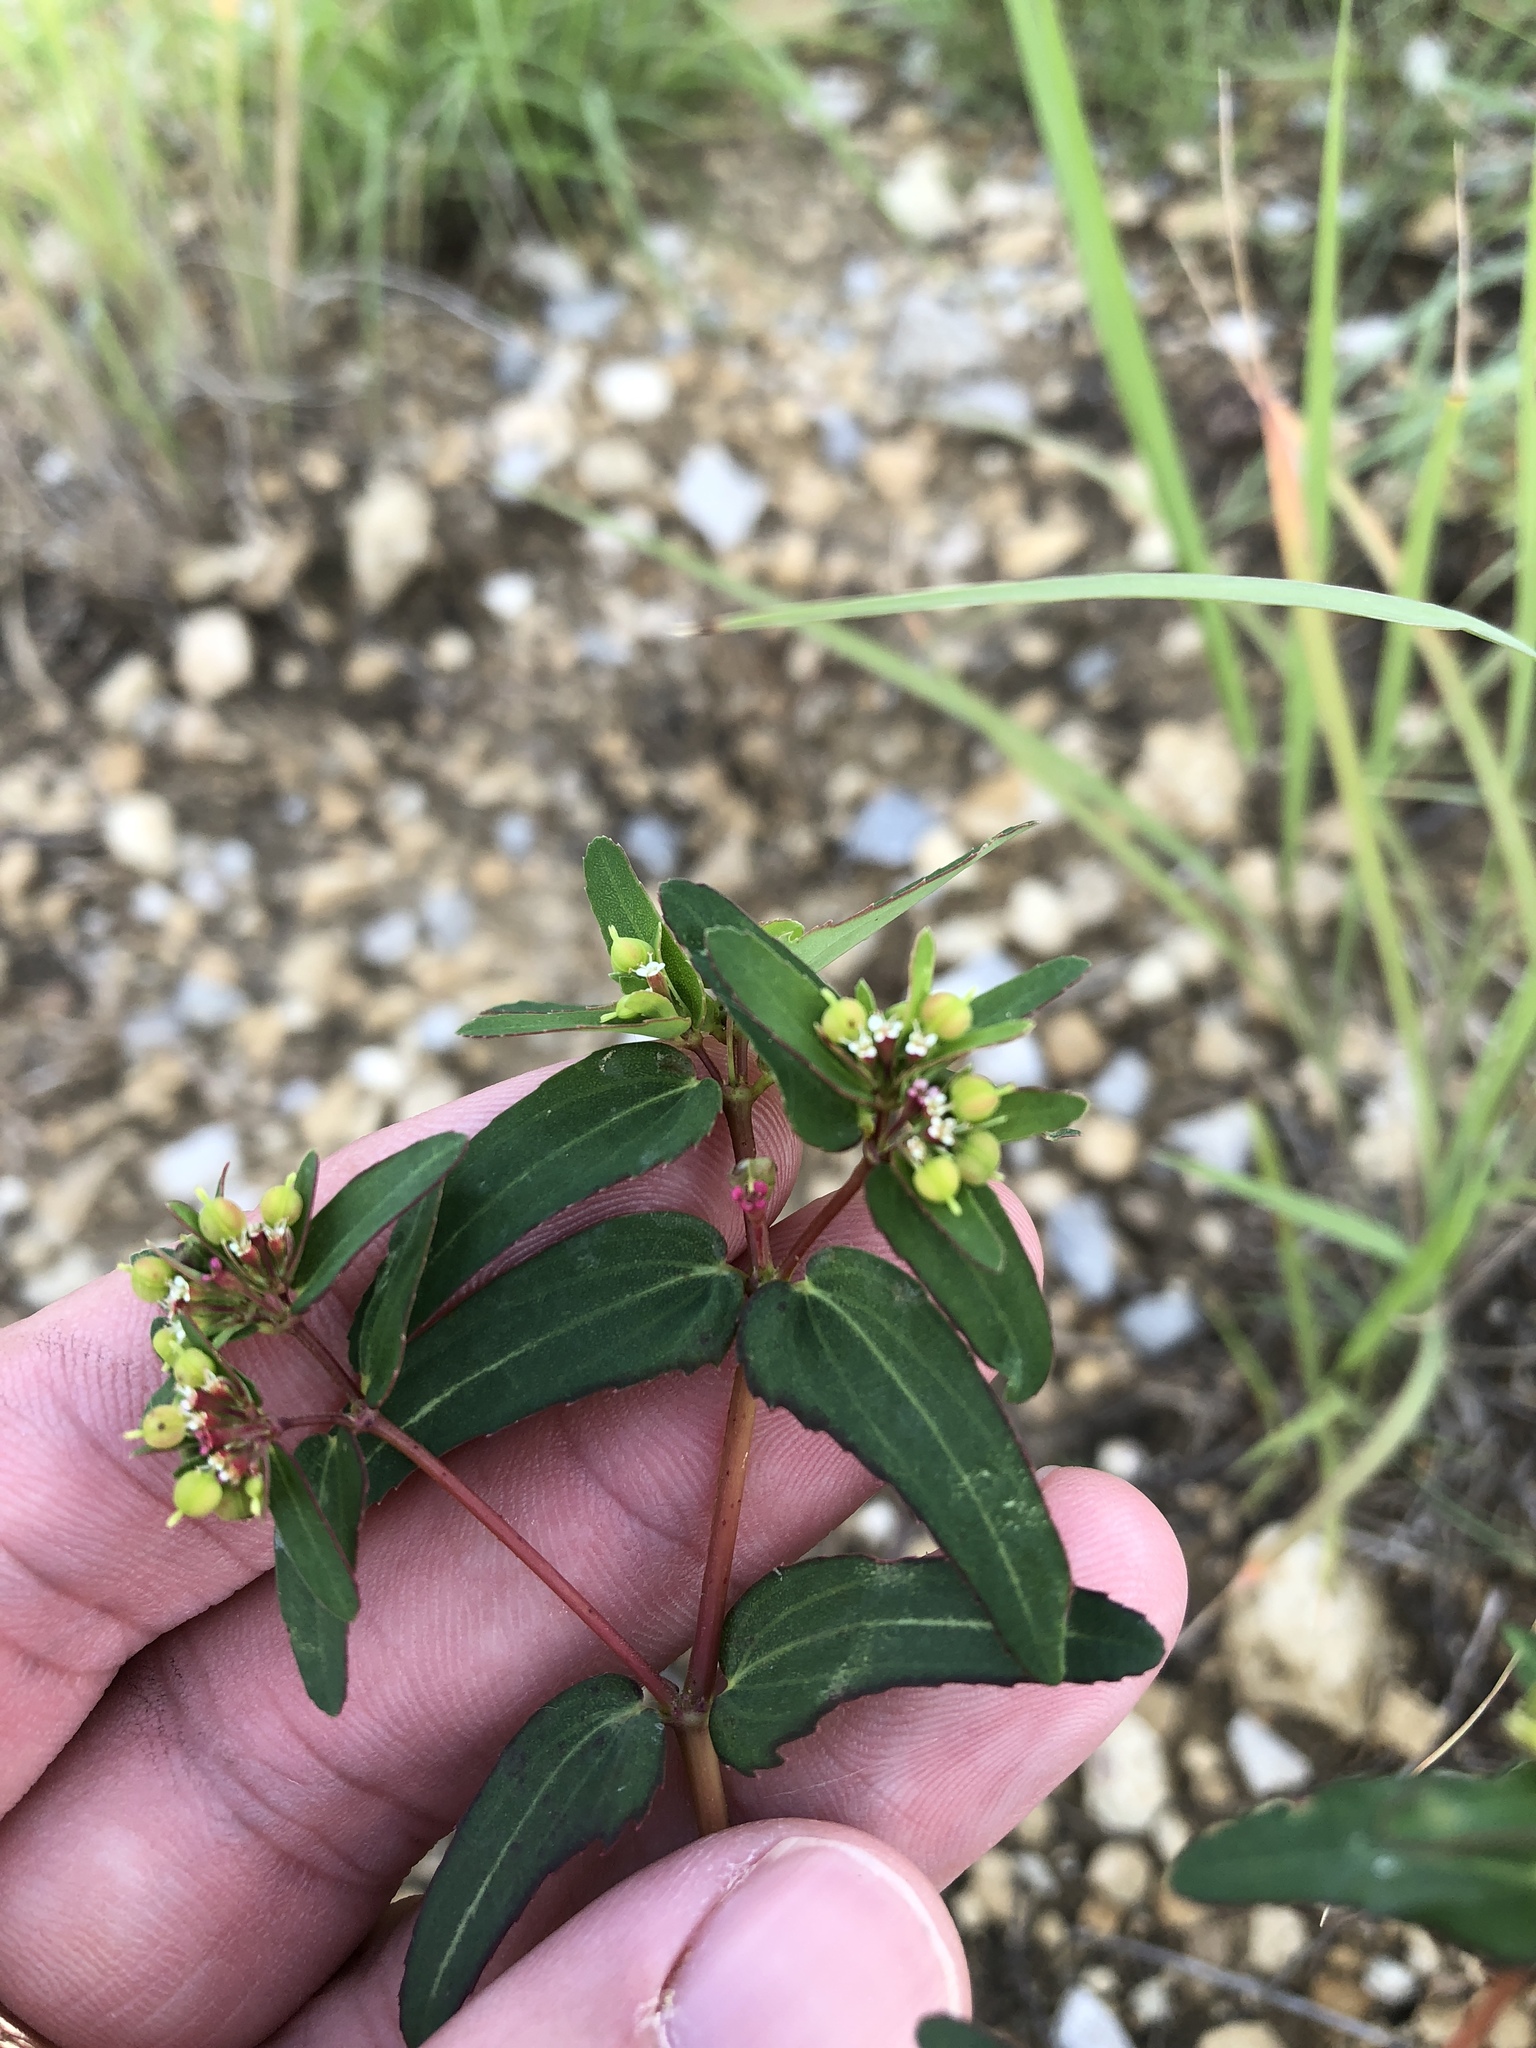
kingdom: Plantae
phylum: Tracheophyta
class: Magnoliopsida
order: Malpighiales
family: Euphorbiaceae
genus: Euphorbia
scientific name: Euphorbia nutans
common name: Eyebane
